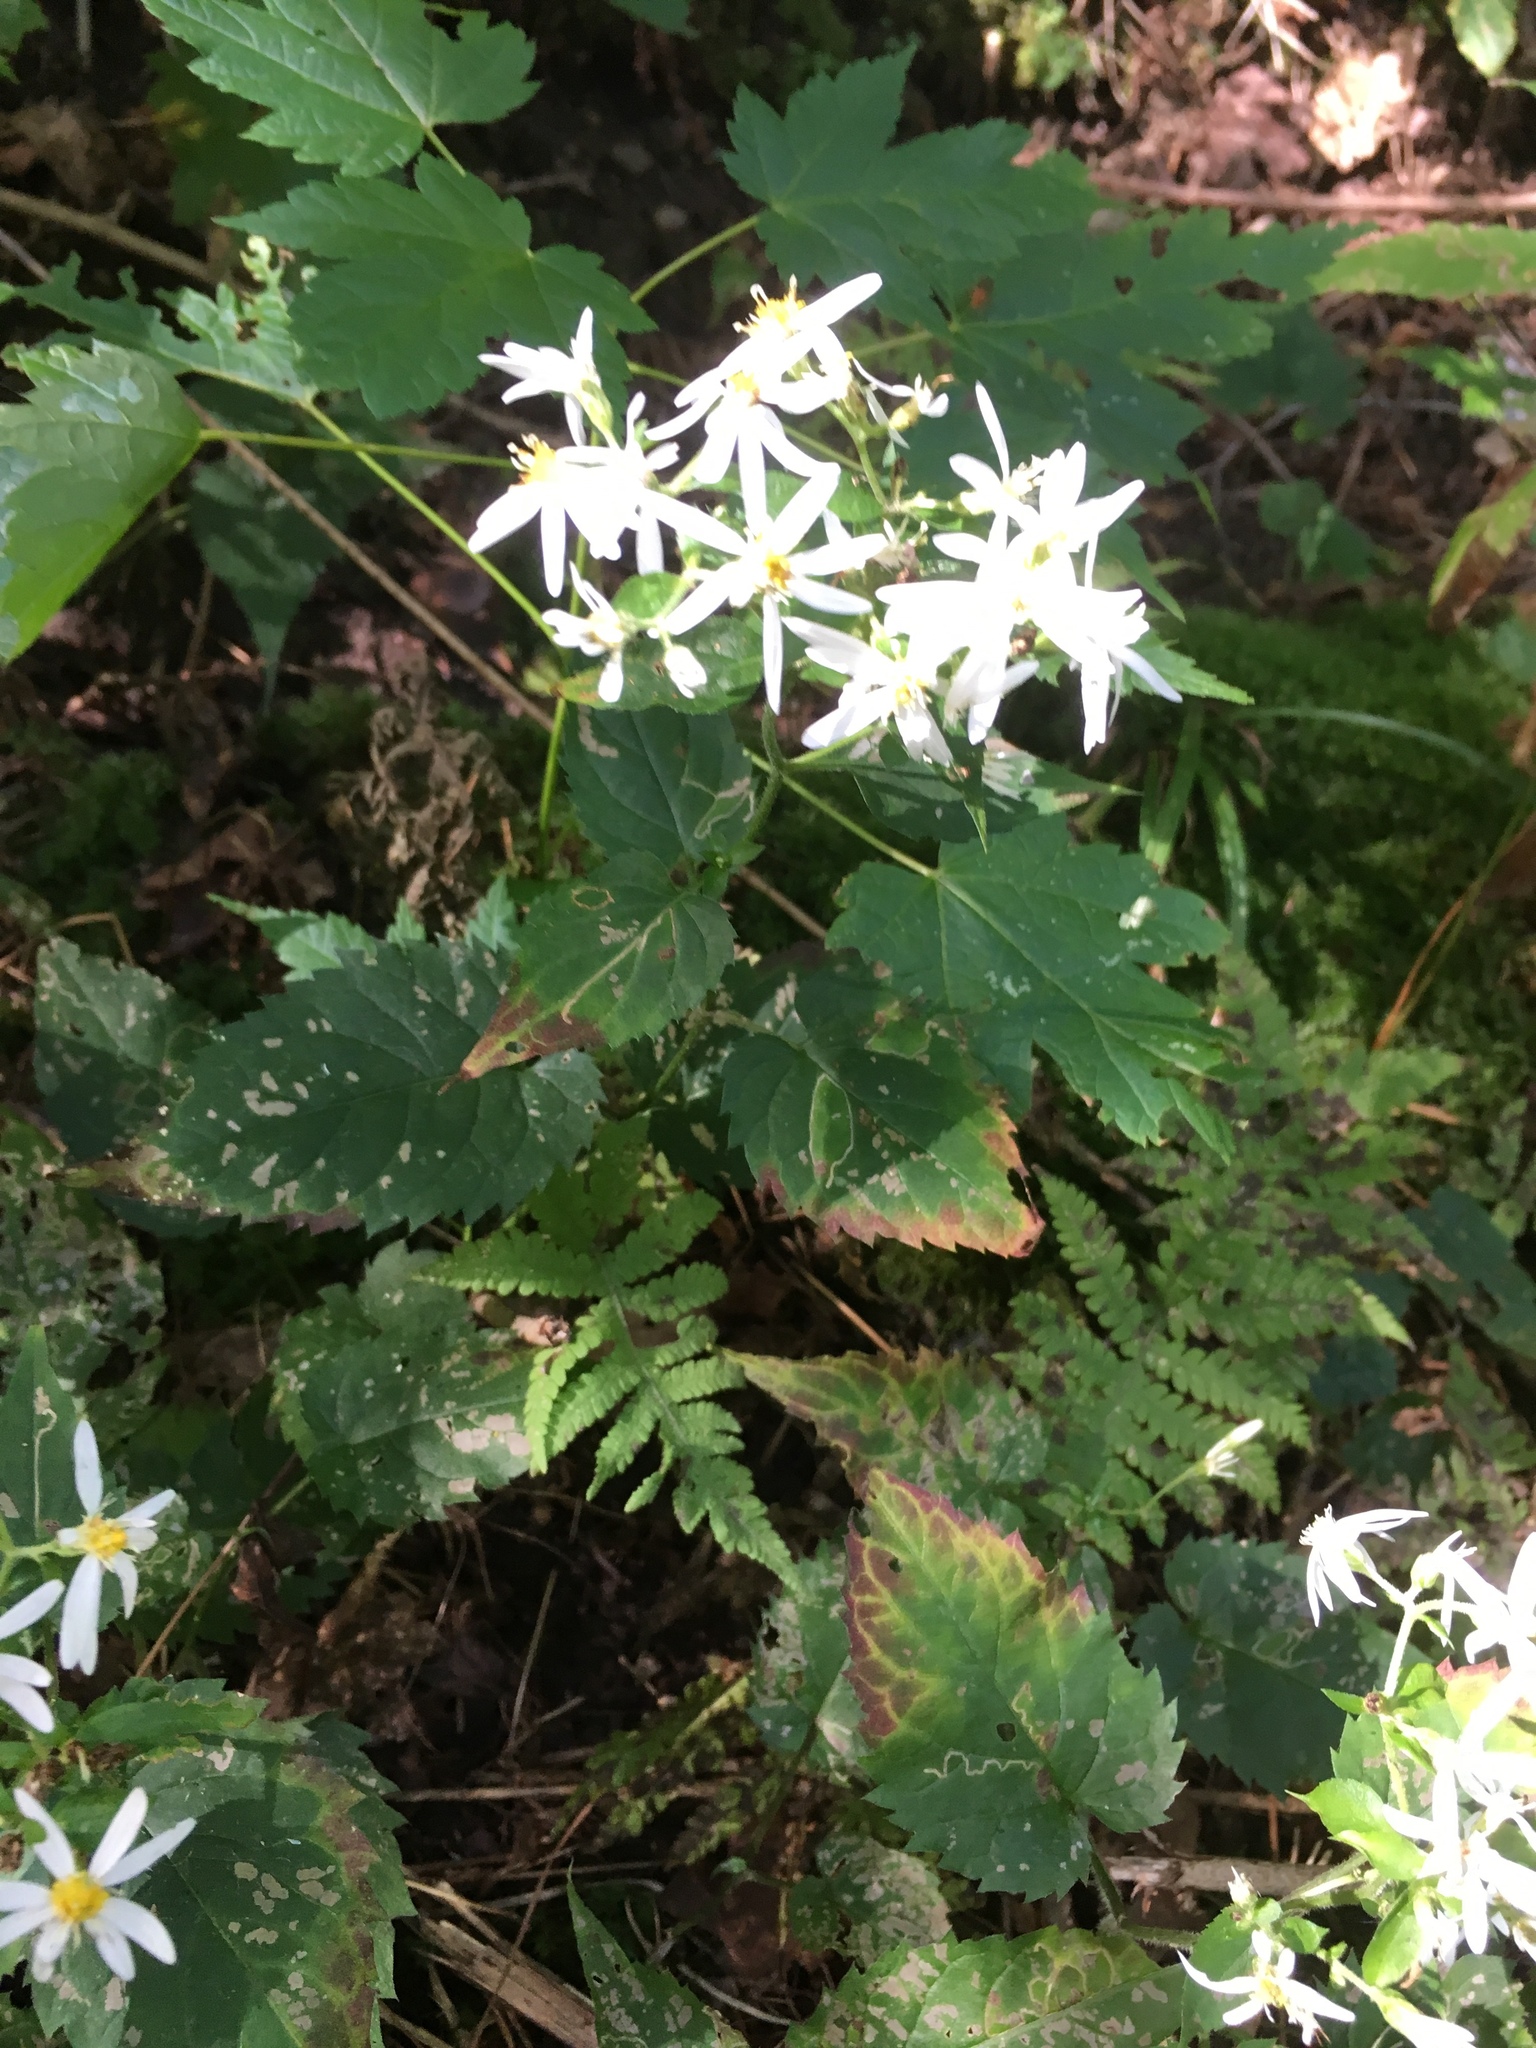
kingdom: Plantae
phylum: Tracheophyta
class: Magnoliopsida
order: Asterales
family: Asteraceae
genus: Eurybia
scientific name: Eurybia divaricata
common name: White wood aster
